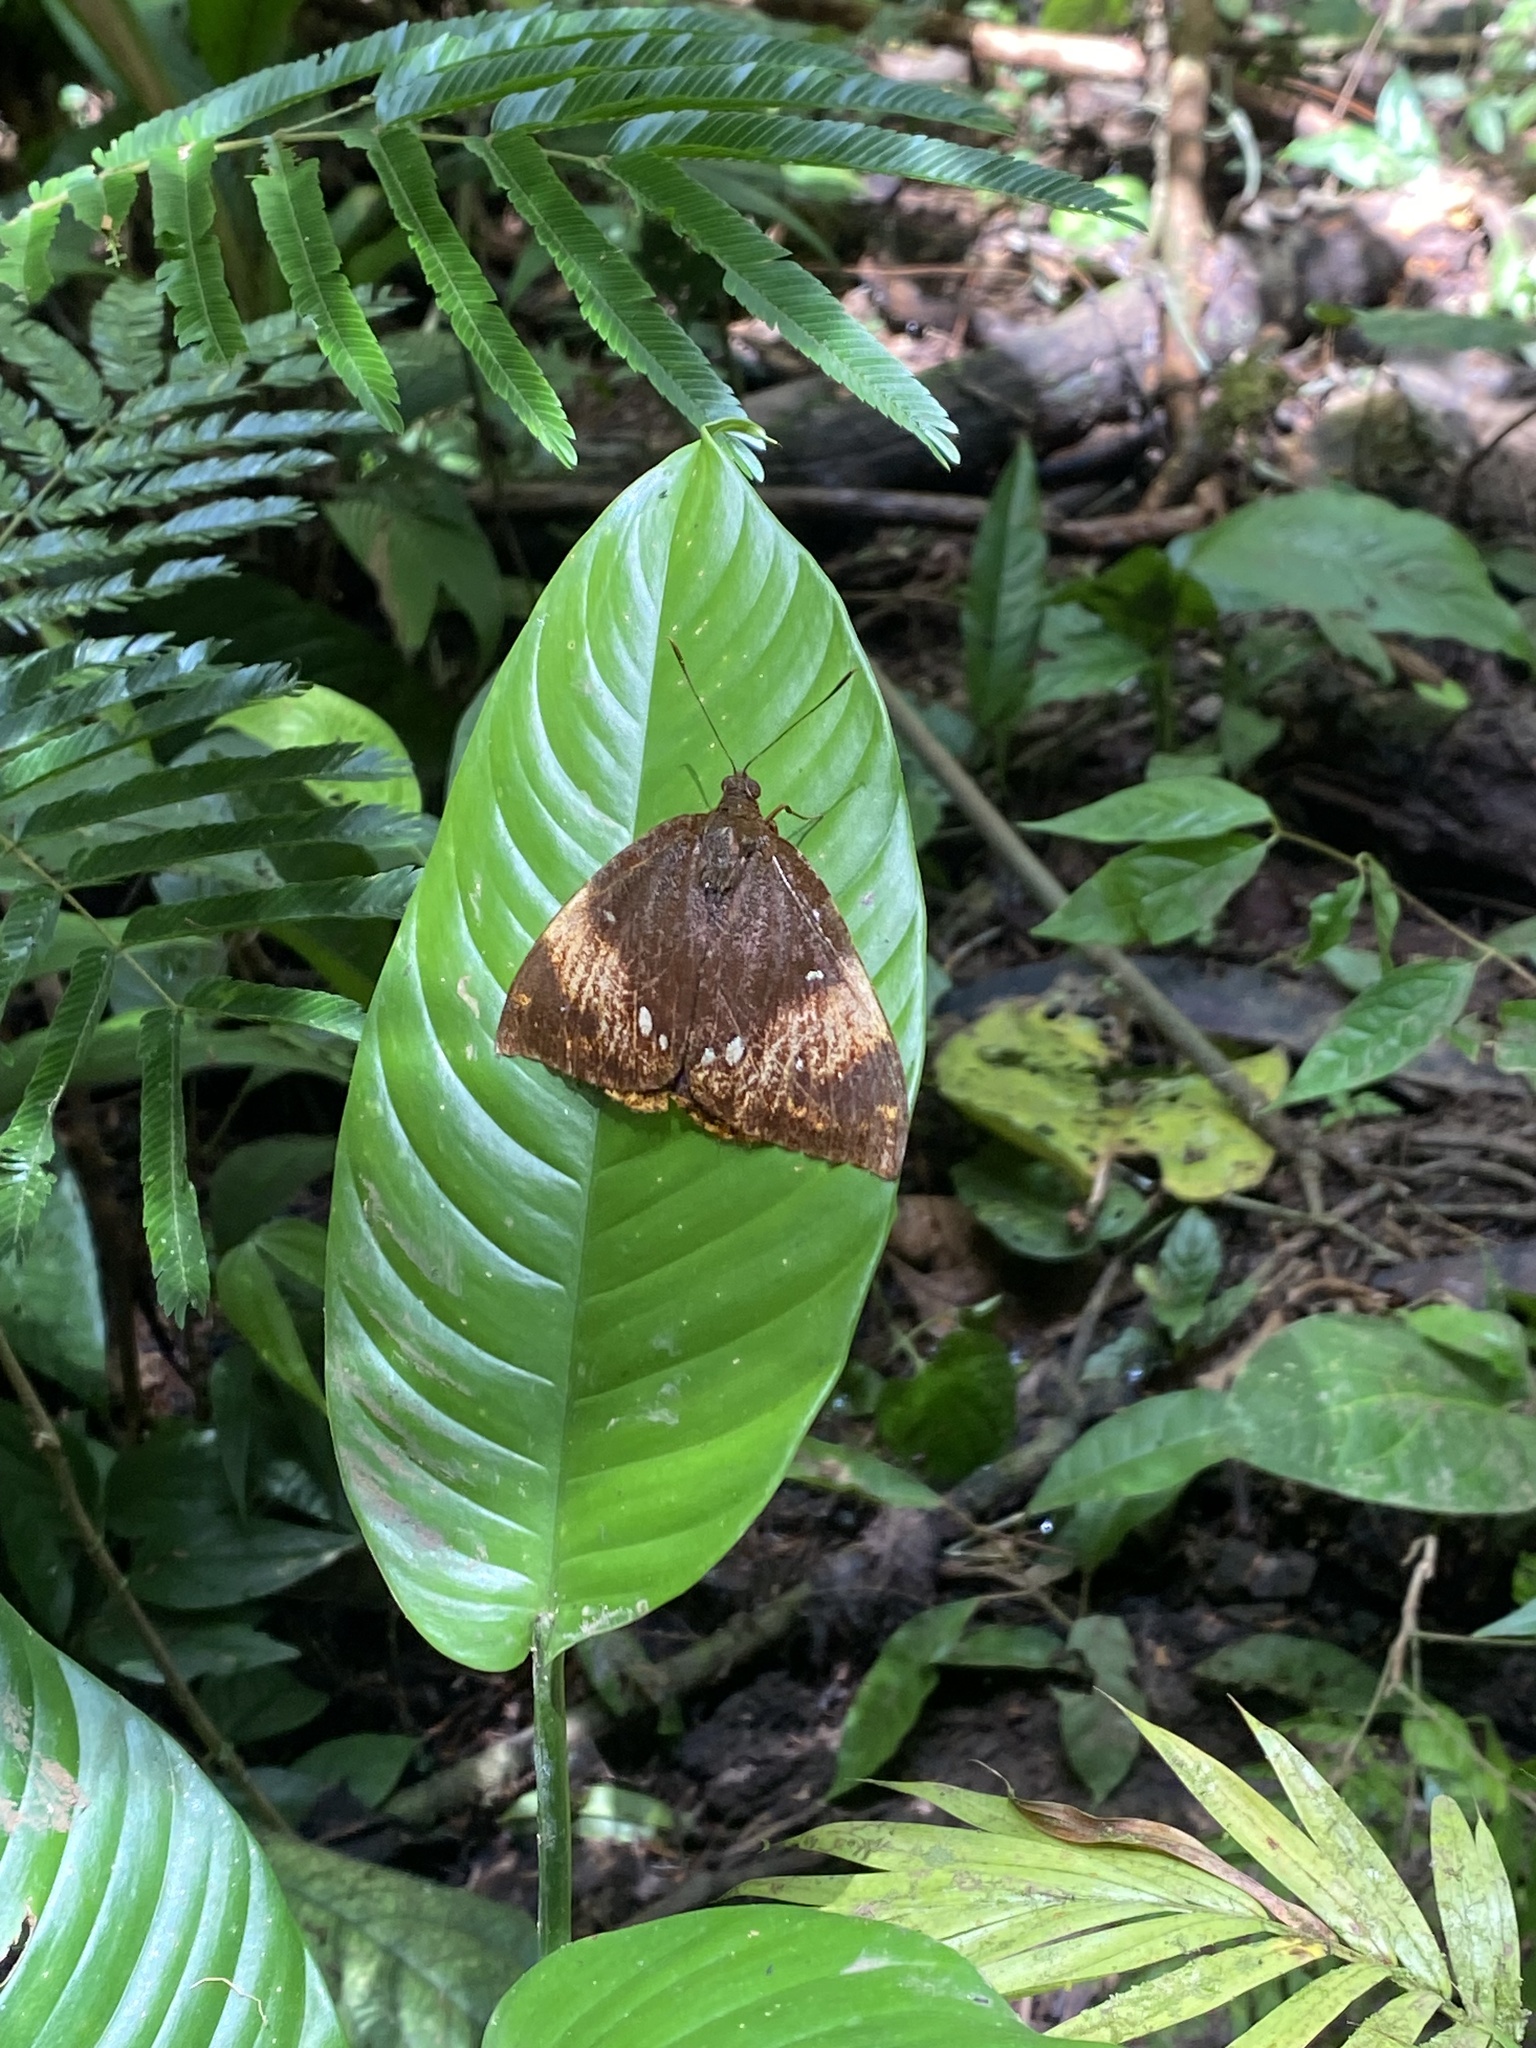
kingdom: Animalia
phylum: Arthropoda
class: Insecta
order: Lepidoptera
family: Castniidae
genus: Divana
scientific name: Divana diva
